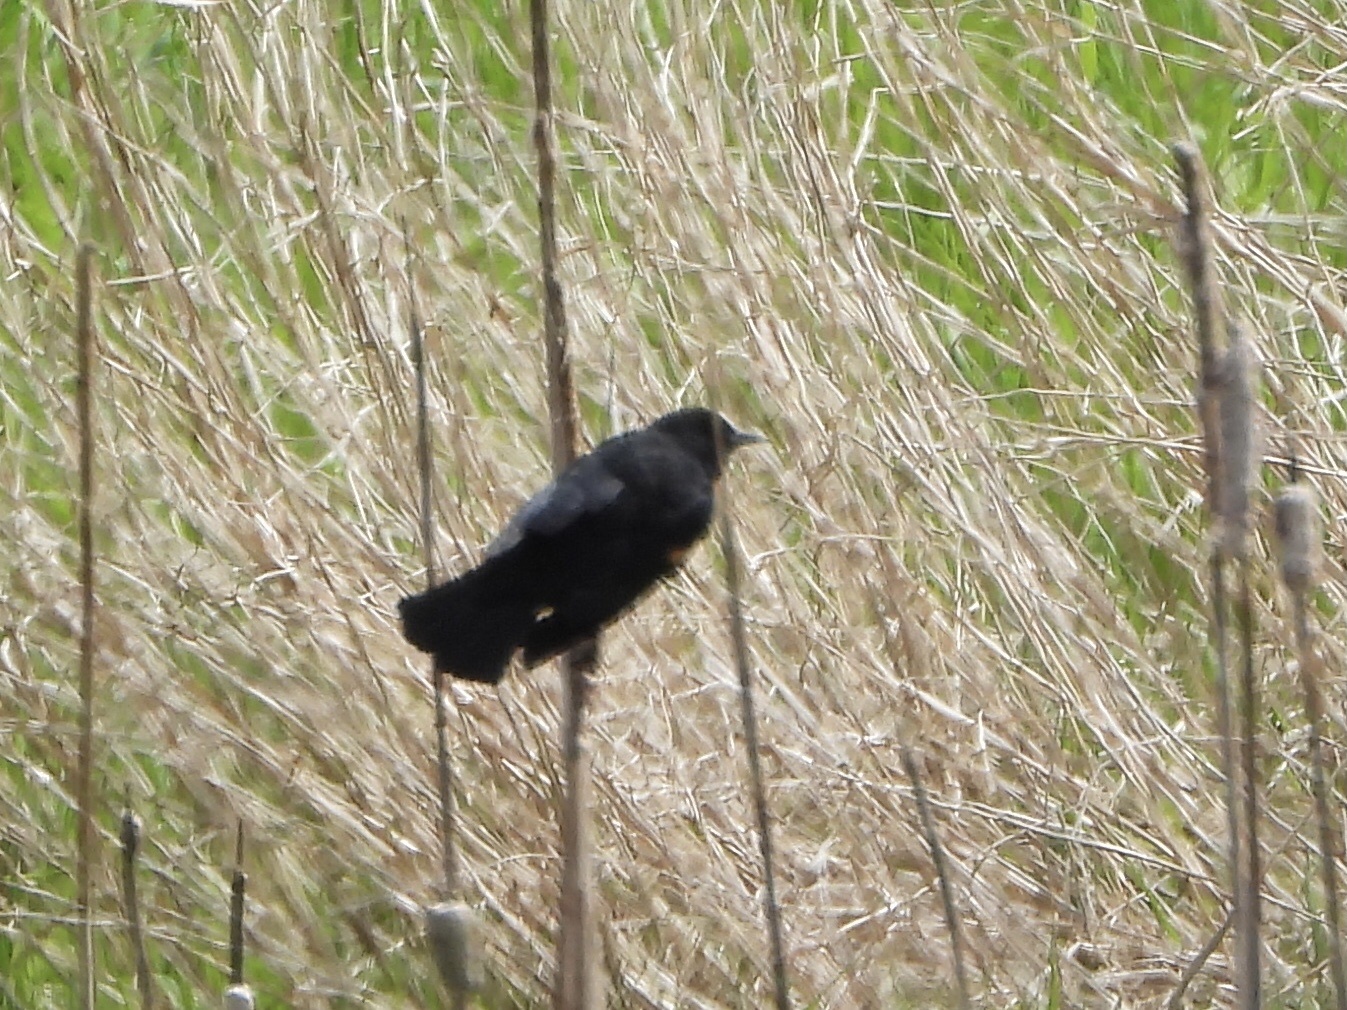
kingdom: Animalia
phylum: Chordata
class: Aves
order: Passeriformes
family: Icteridae
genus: Agelaius
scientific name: Agelaius phoeniceus
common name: Red-winged blackbird
